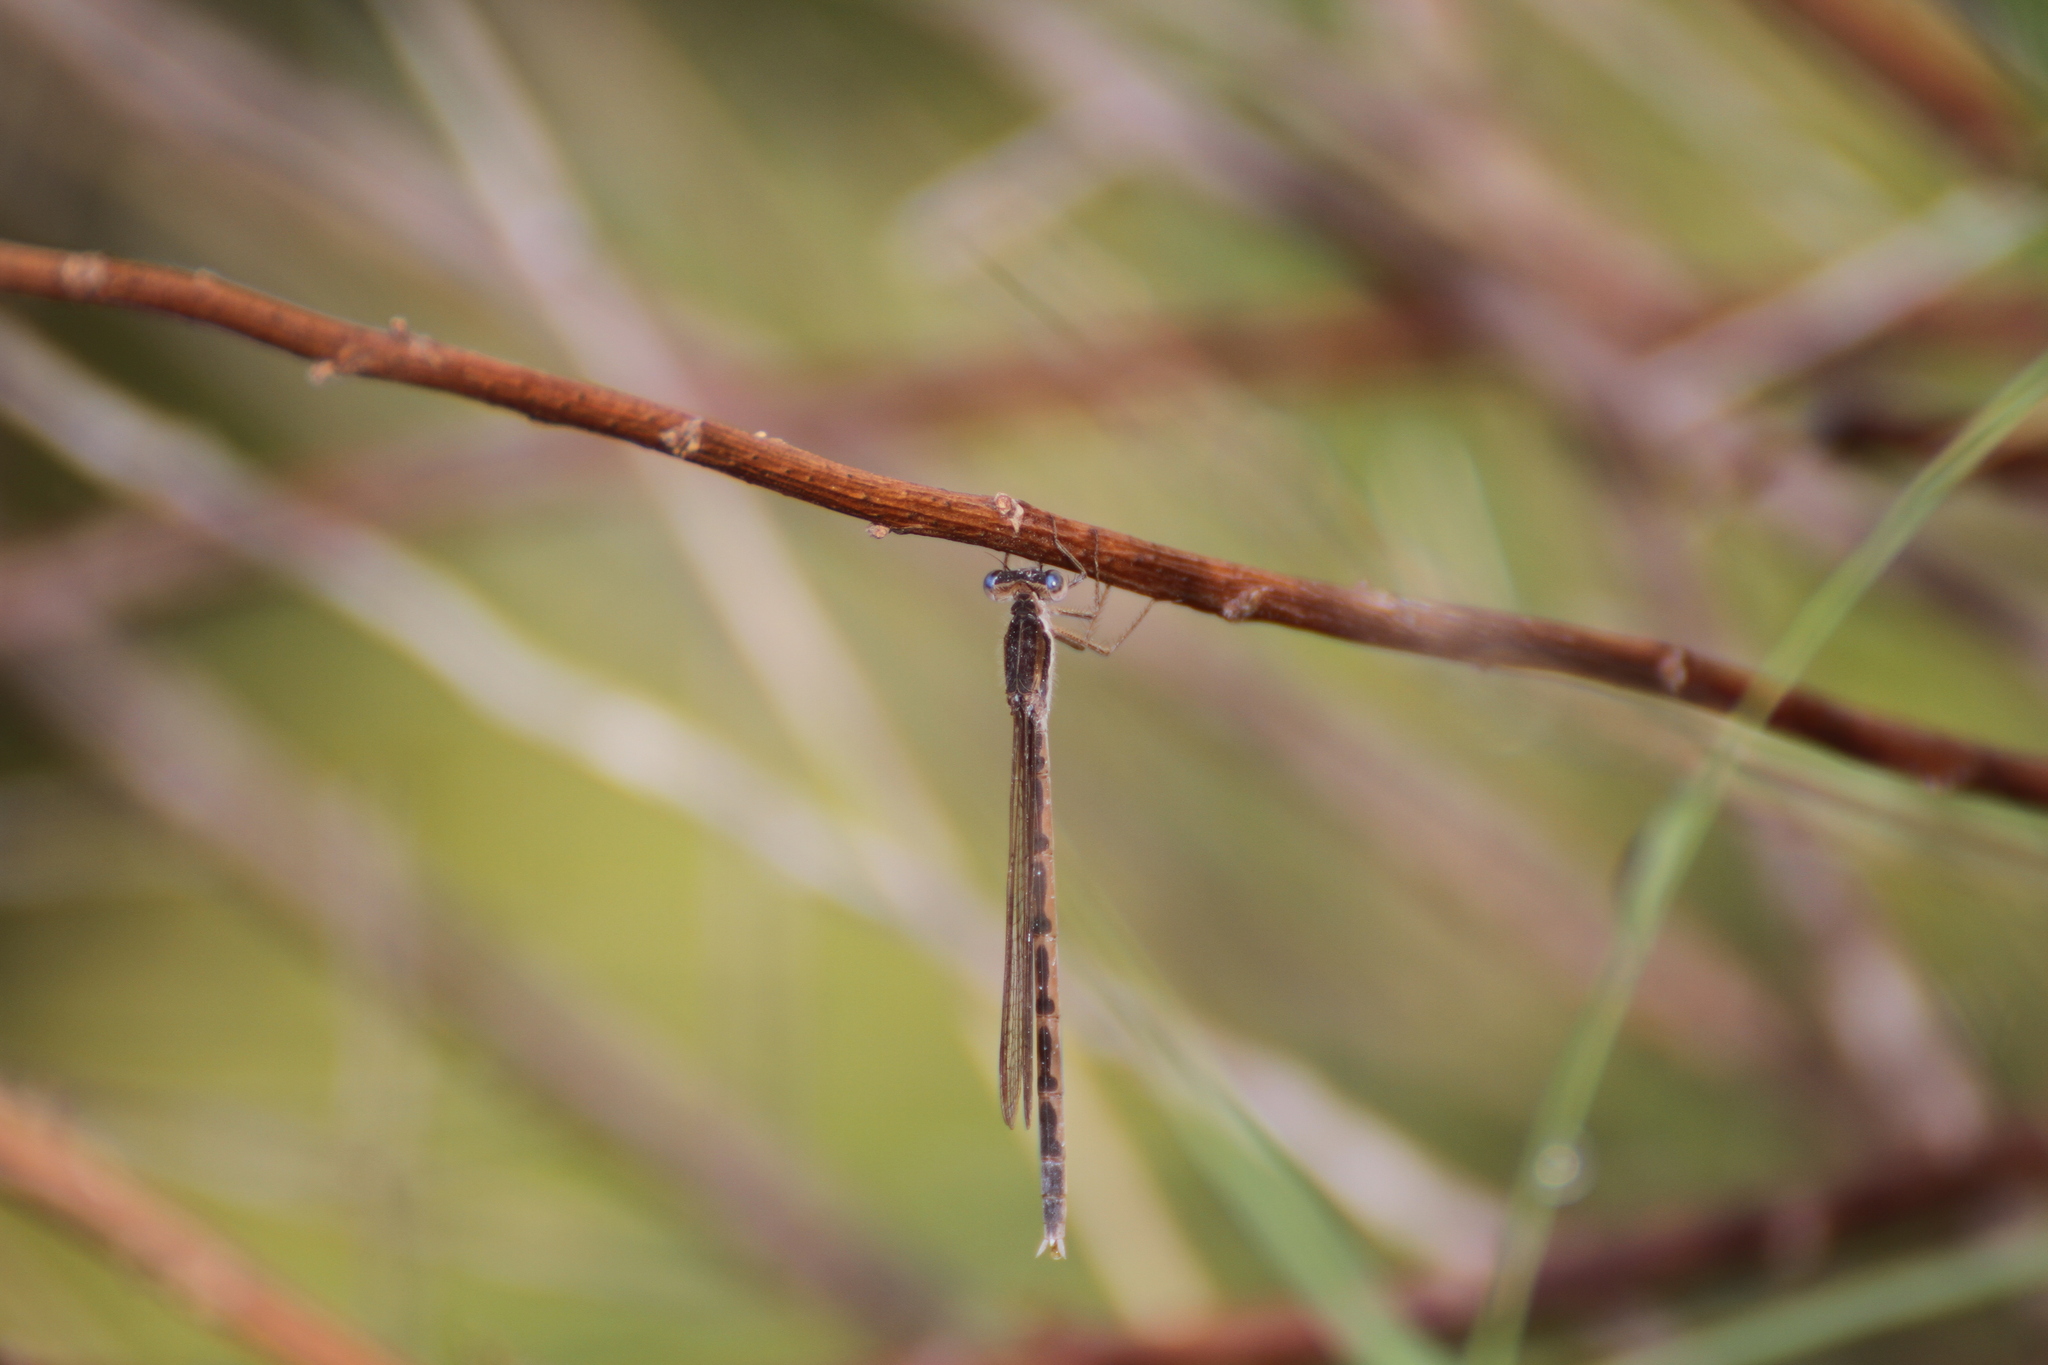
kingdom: Animalia
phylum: Arthropoda
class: Insecta
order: Odonata
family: Lestidae
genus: Sympecma
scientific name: Sympecma fusca
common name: Common winter damsel
